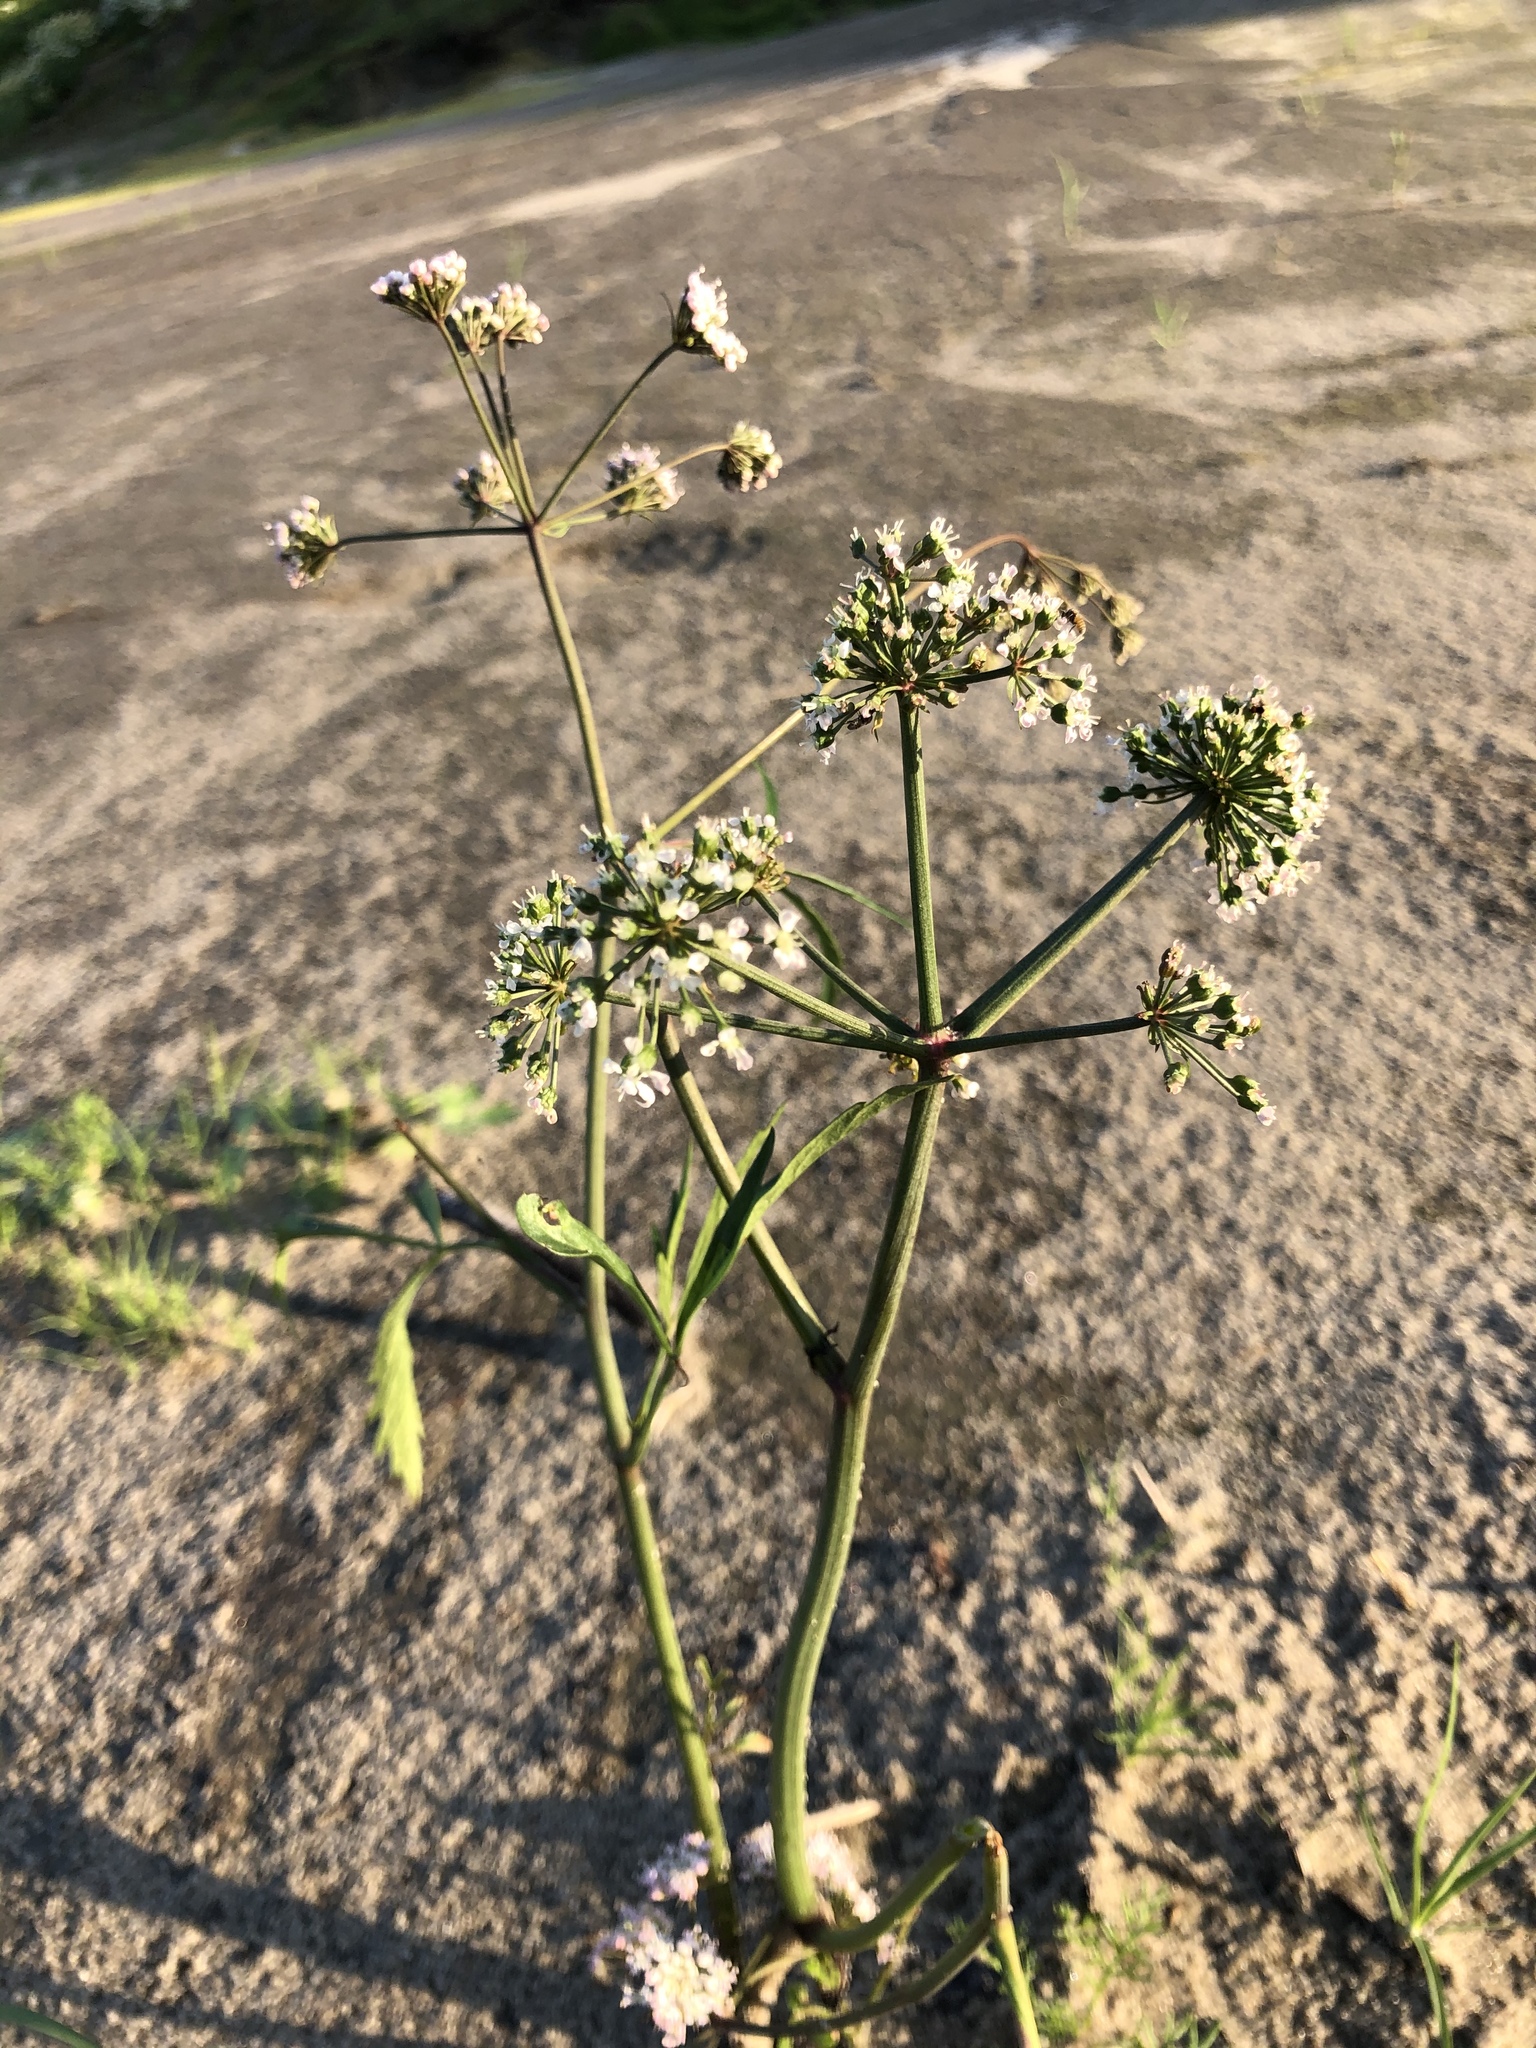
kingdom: Plantae
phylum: Tracheophyta
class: Magnoliopsida
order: Apiales
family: Apiaceae
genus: Cicuta
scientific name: Cicuta virosa
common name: Cowbane
